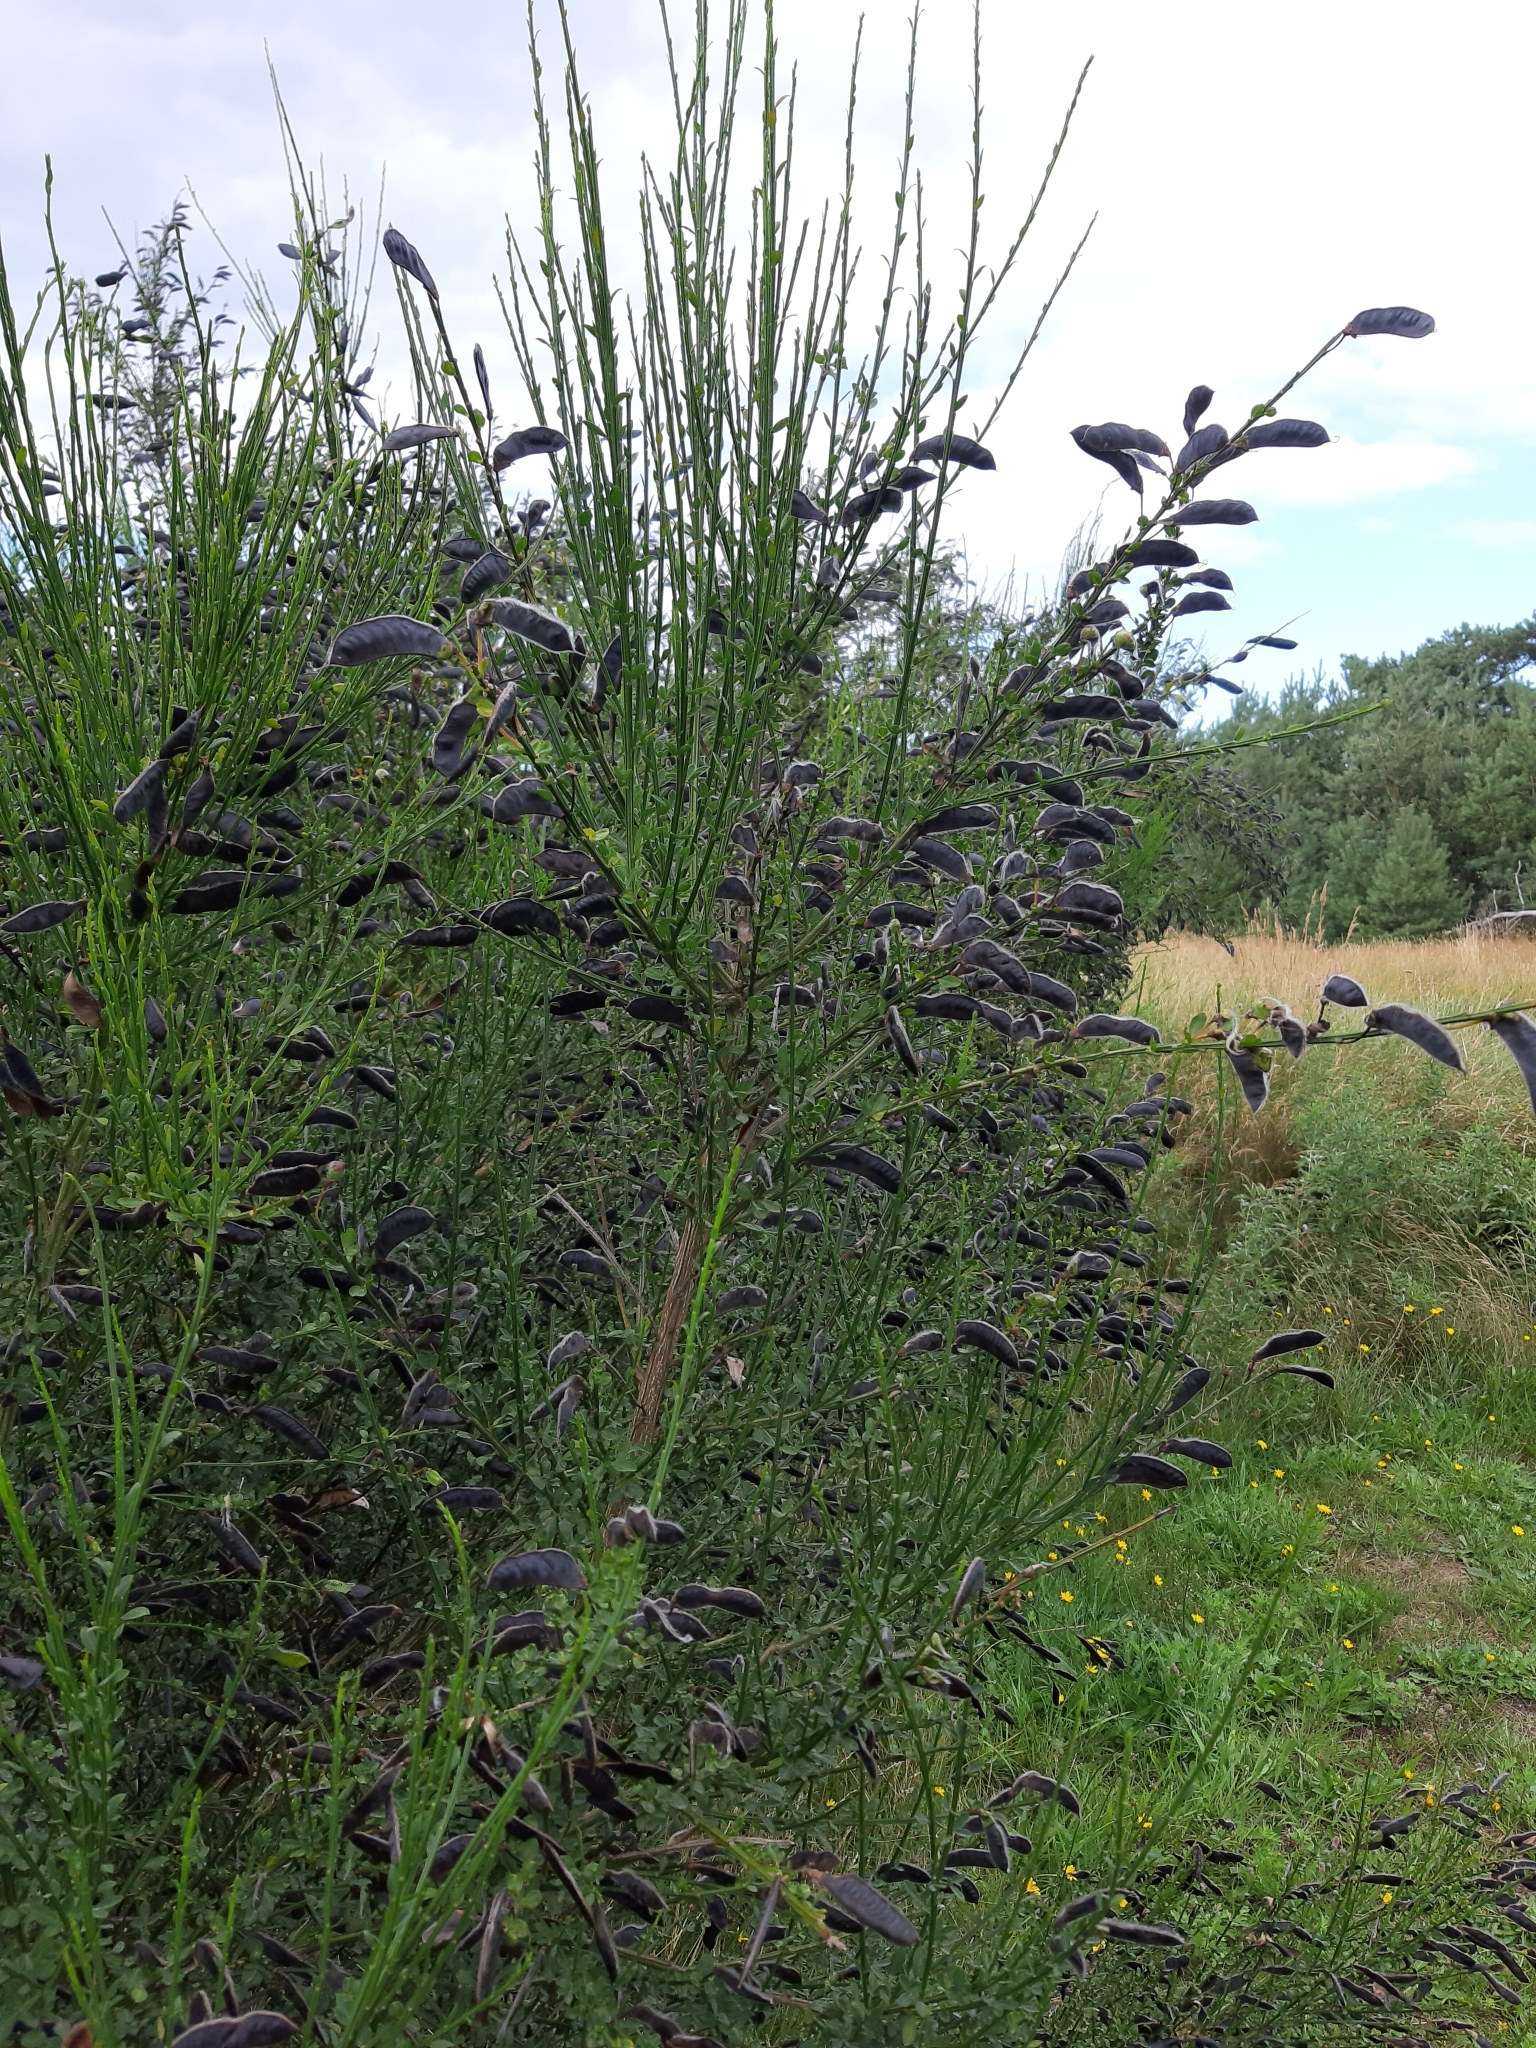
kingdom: Plantae
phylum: Tracheophyta
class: Magnoliopsida
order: Fabales
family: Fabaceae
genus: Cytisus
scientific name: Cytisus scoparius
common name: Scotch broom
